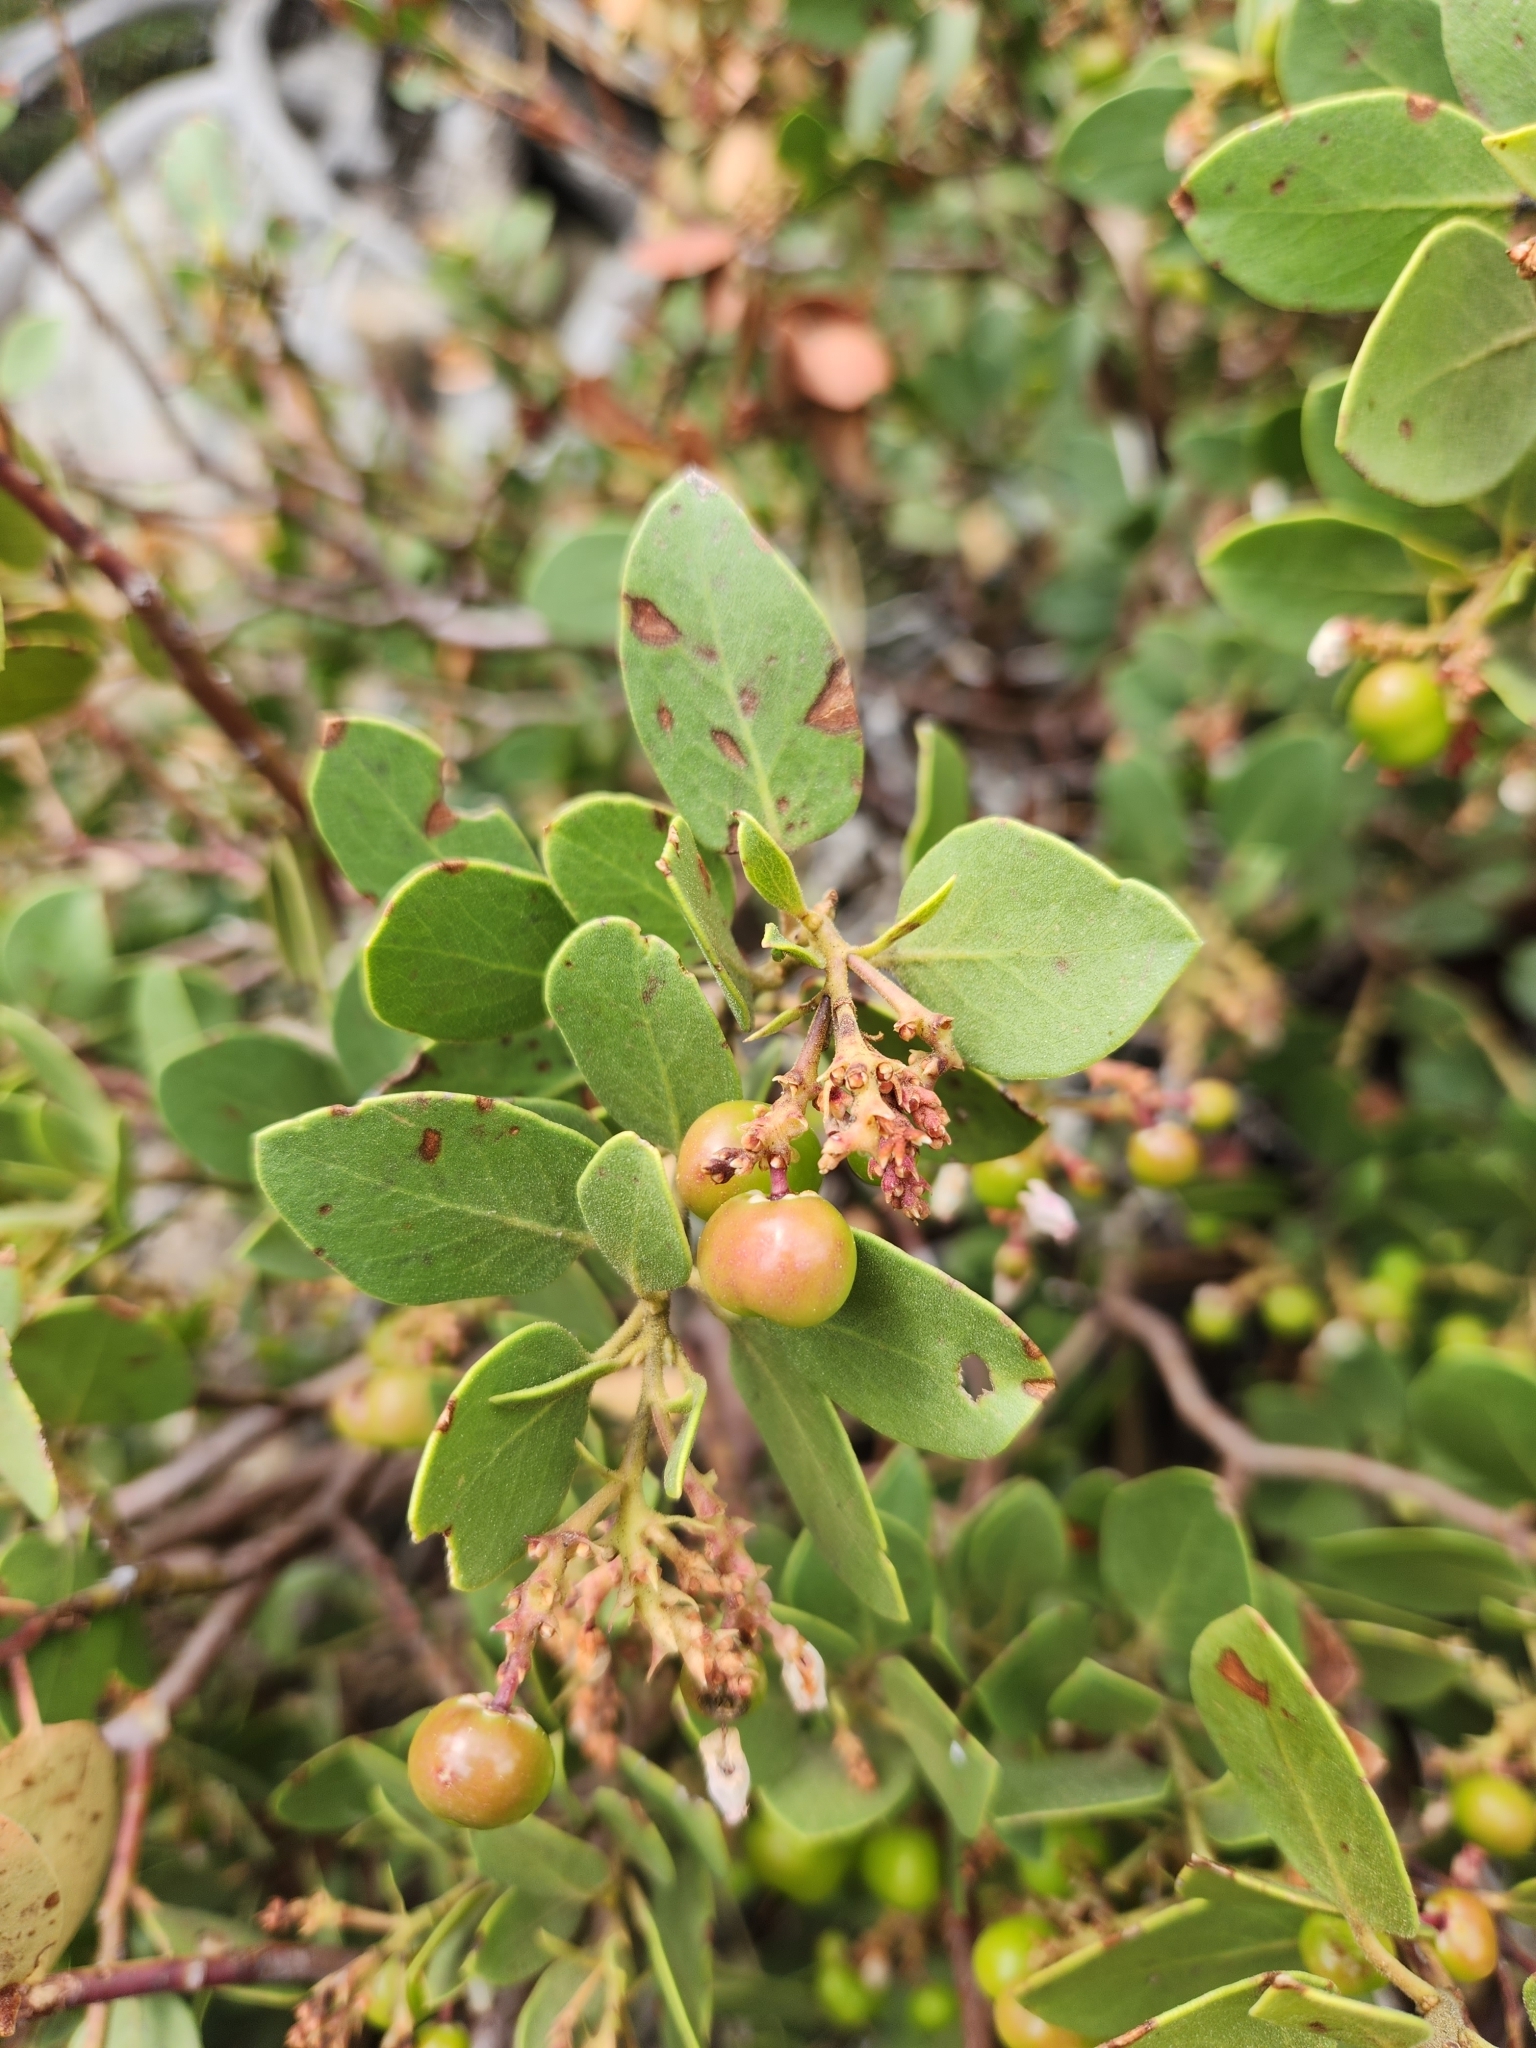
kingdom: Plantae
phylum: Tracheophyta
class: Magnoliopsida
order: Ericales
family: Ericaceae
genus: Arctostaphylos
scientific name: Arctostaphylos patula
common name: Green-leaf manzanita
